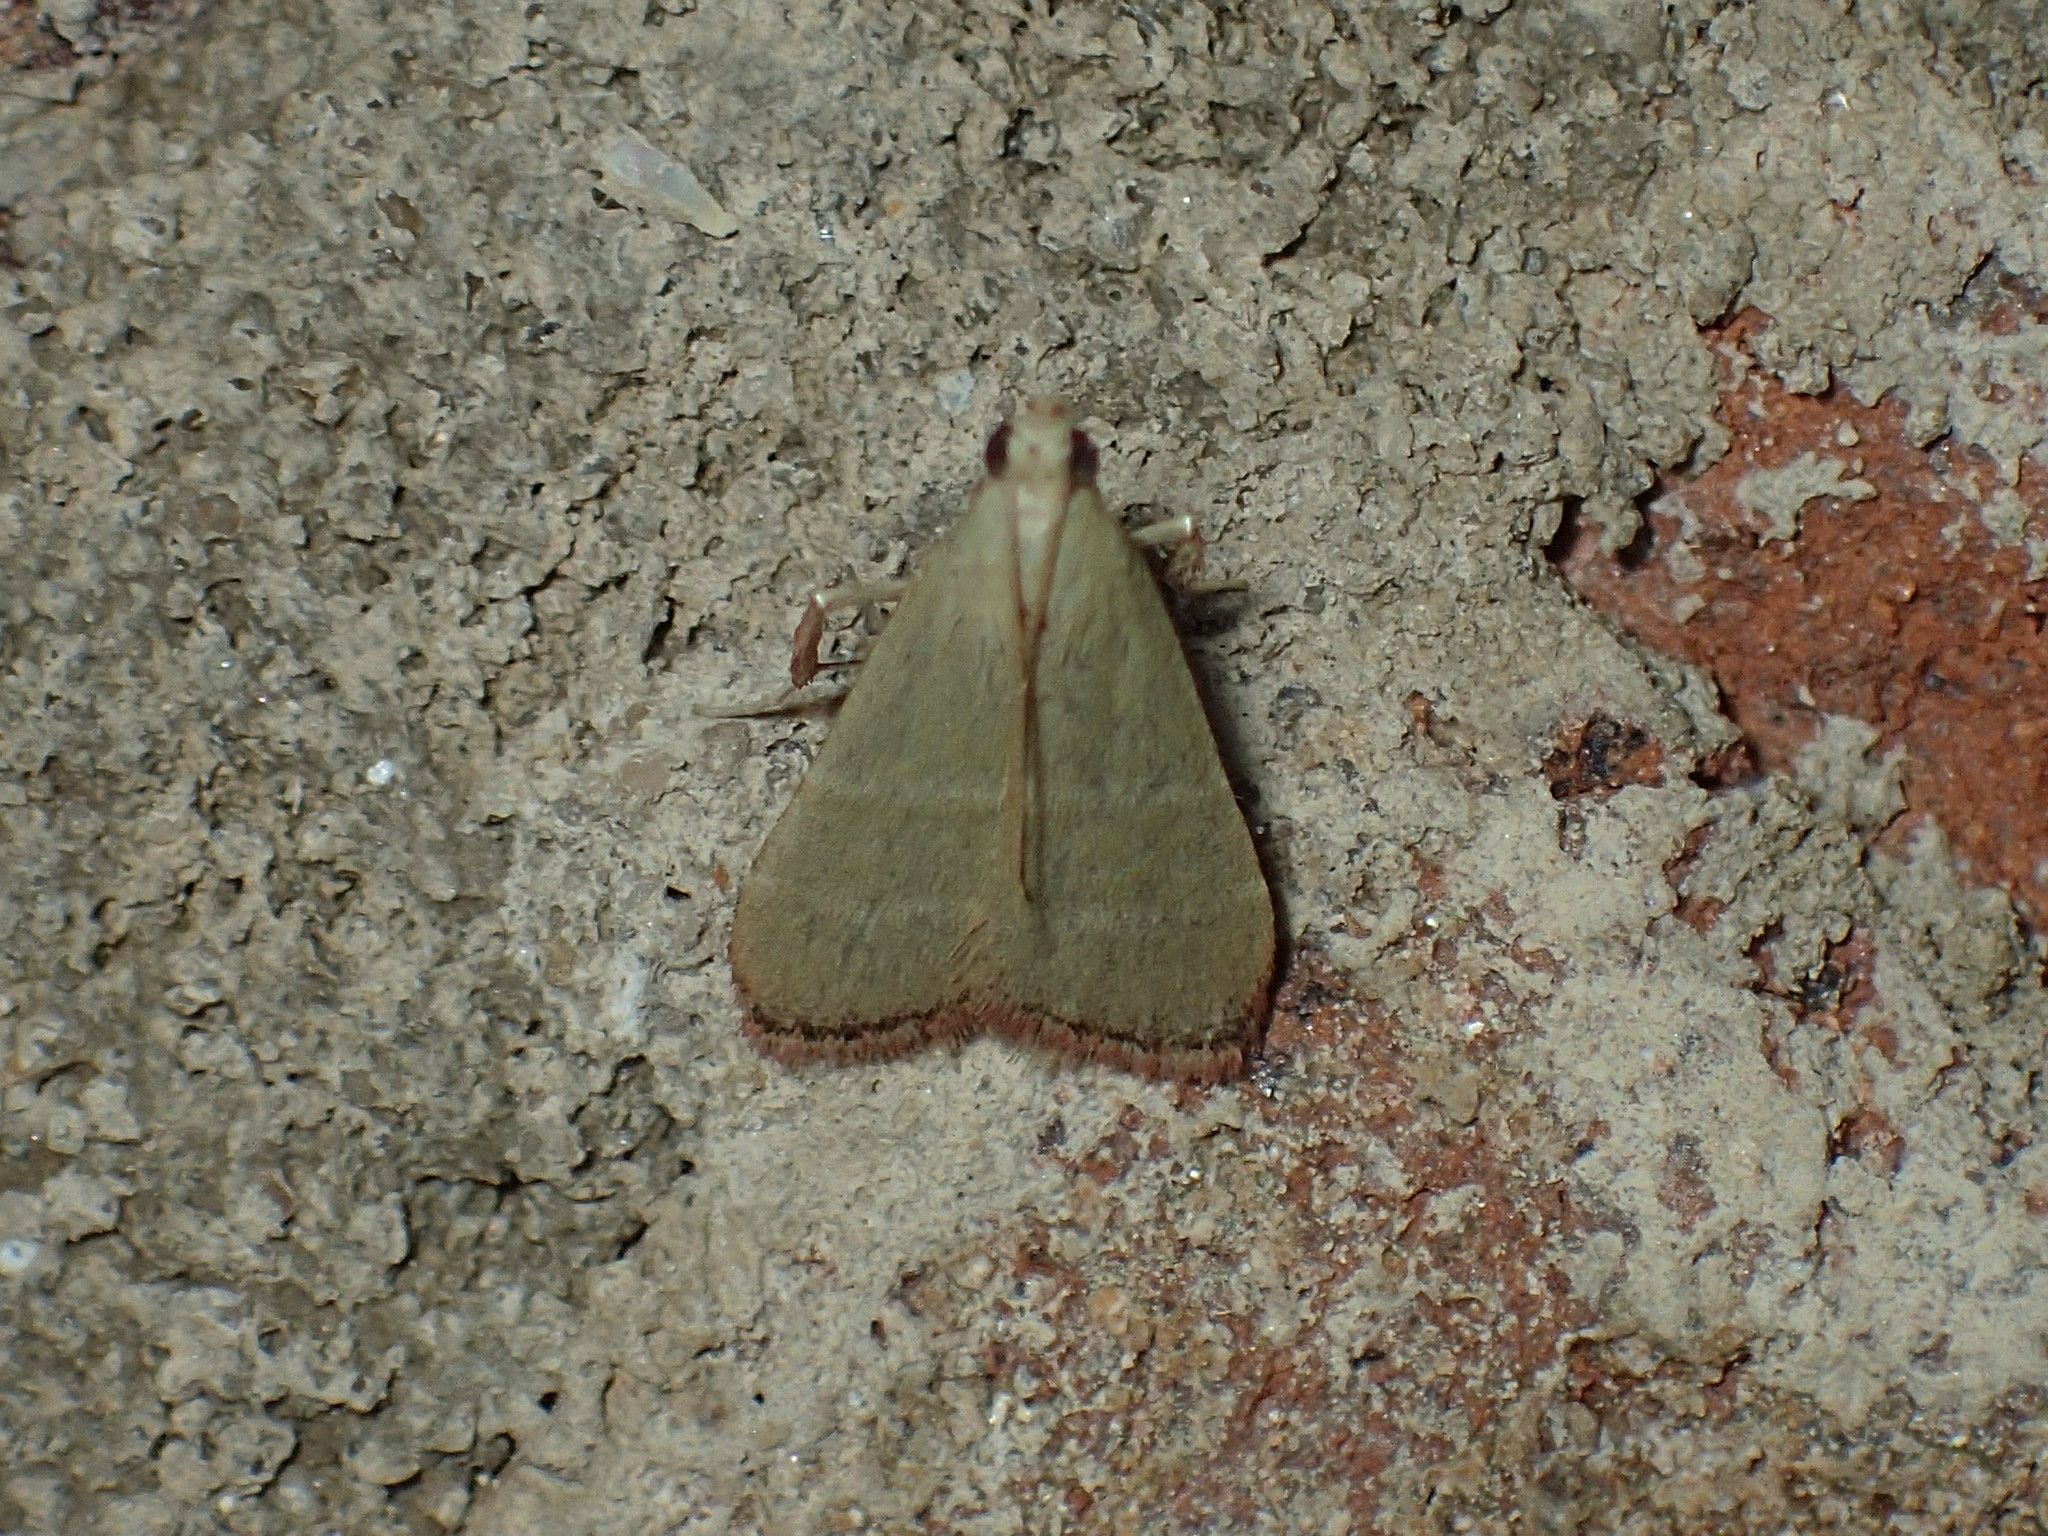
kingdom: Animalia
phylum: Arthropoda
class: Insecta
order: Lepidoptera
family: Pyralidae
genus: Arta
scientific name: Arta olivalis
